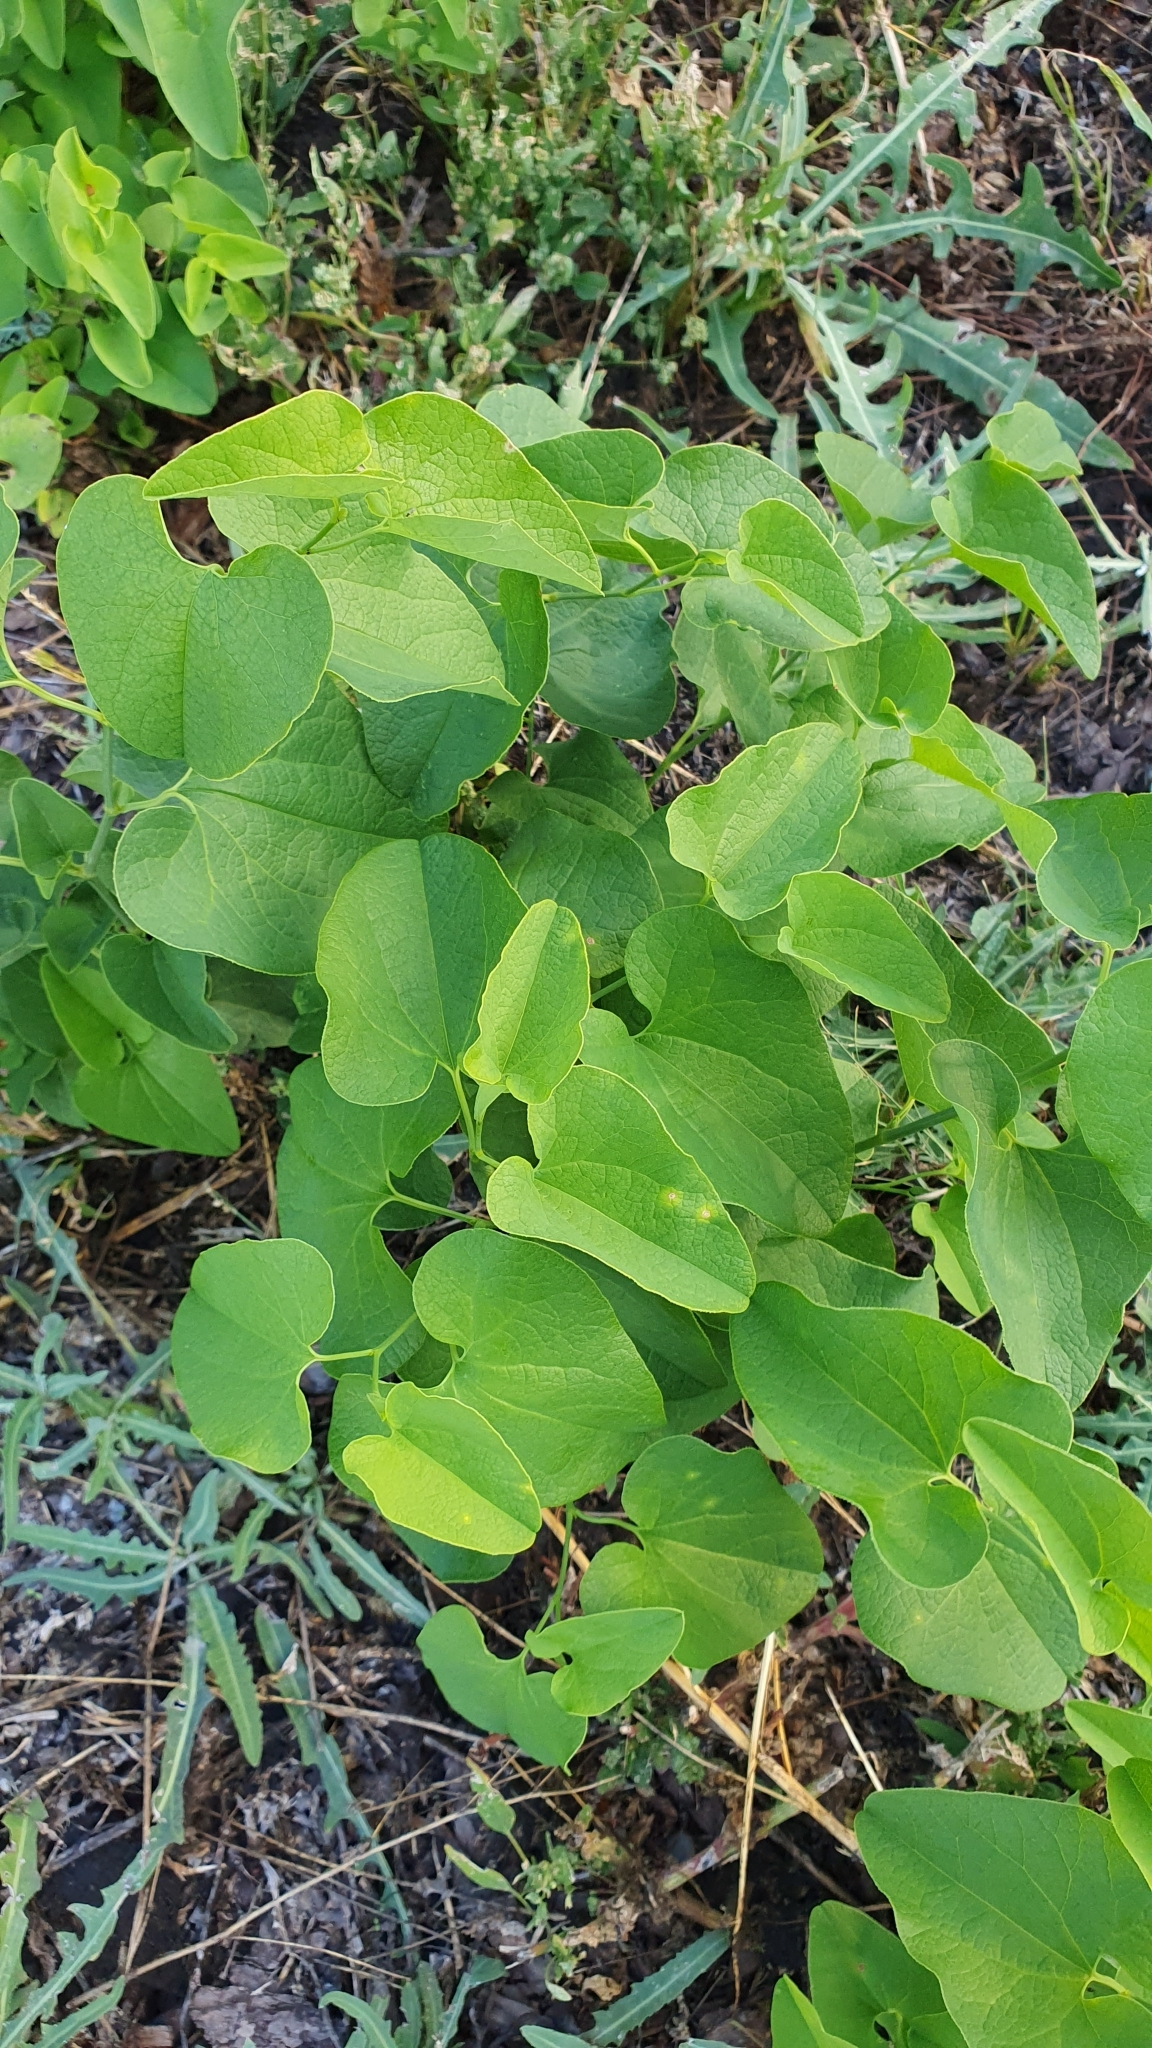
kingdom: Plantae
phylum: Tracheophyta
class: Magnoliopsida
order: Piperales
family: Aristolochiaceae
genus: Aristolochia
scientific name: Aristolochia clematitis
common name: Birthwort
